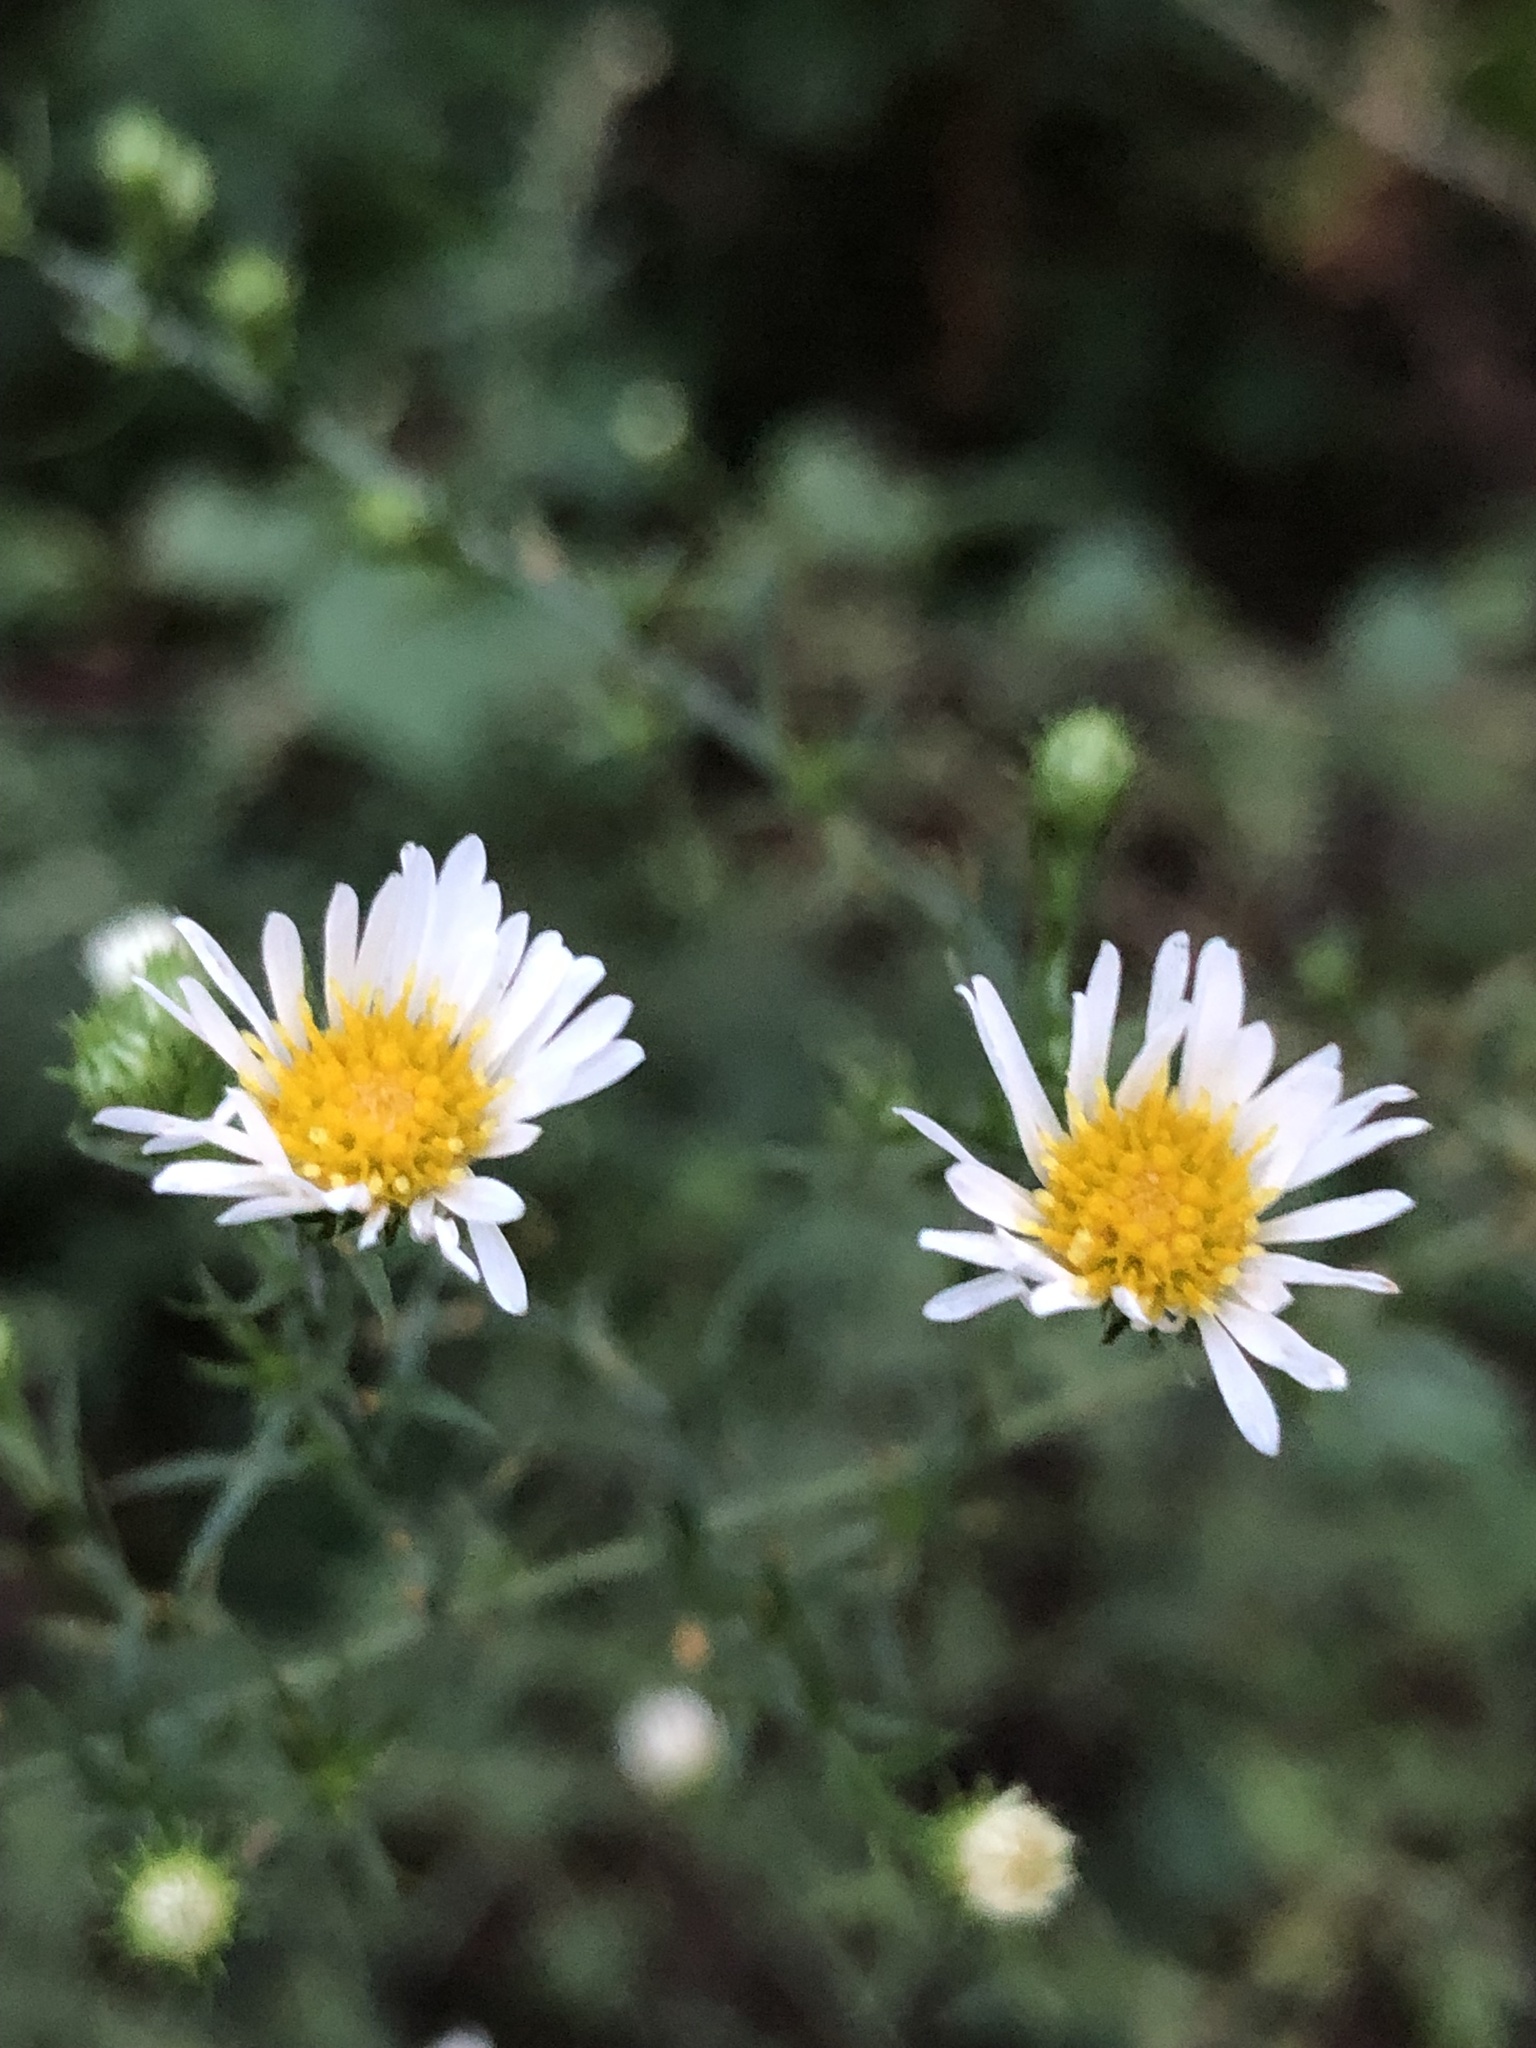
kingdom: Plantae
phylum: Tracheophyta
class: Magnoliopsida
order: Asterales
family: Asteraceae
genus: Symphyotrichum
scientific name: Symphyotrichum pilosum
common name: Awl aster
